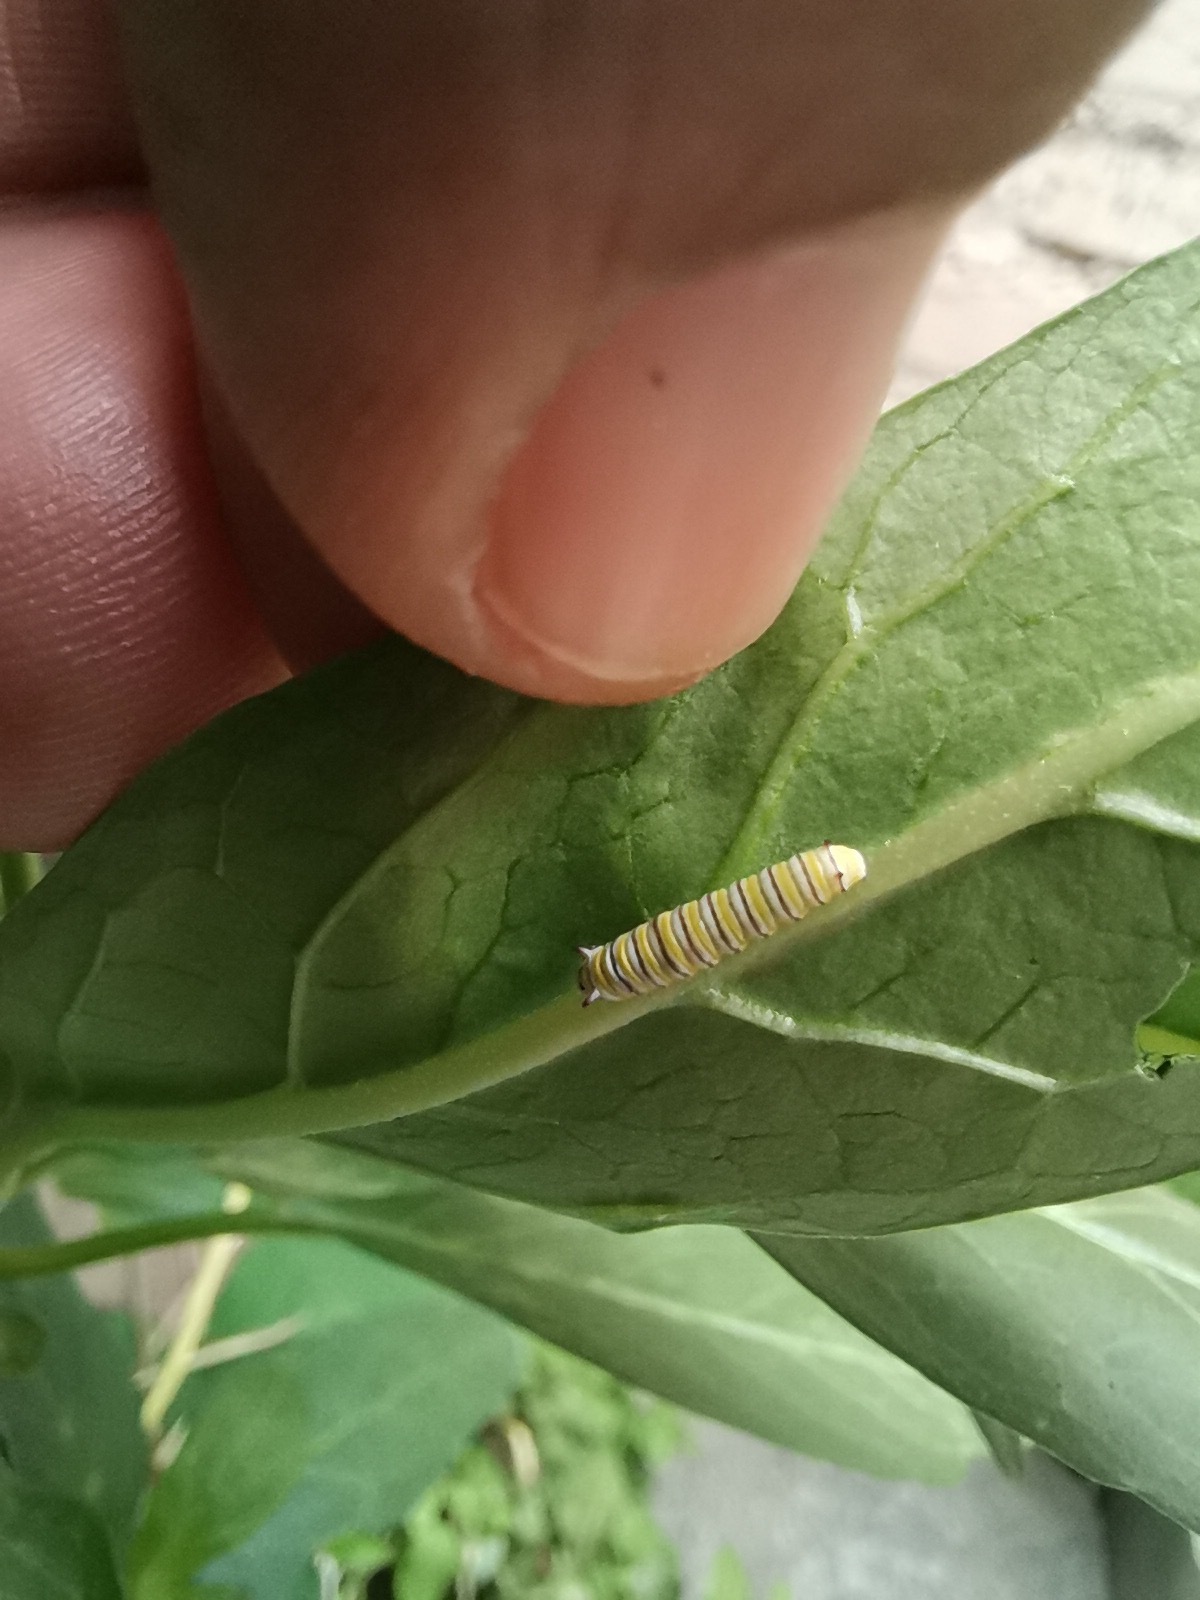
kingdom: Animalia
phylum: Arthropoda
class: Insecta
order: Lepidoptera
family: Nymphalidae
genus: Danaus
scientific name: Danaus plexippus
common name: Monarch
